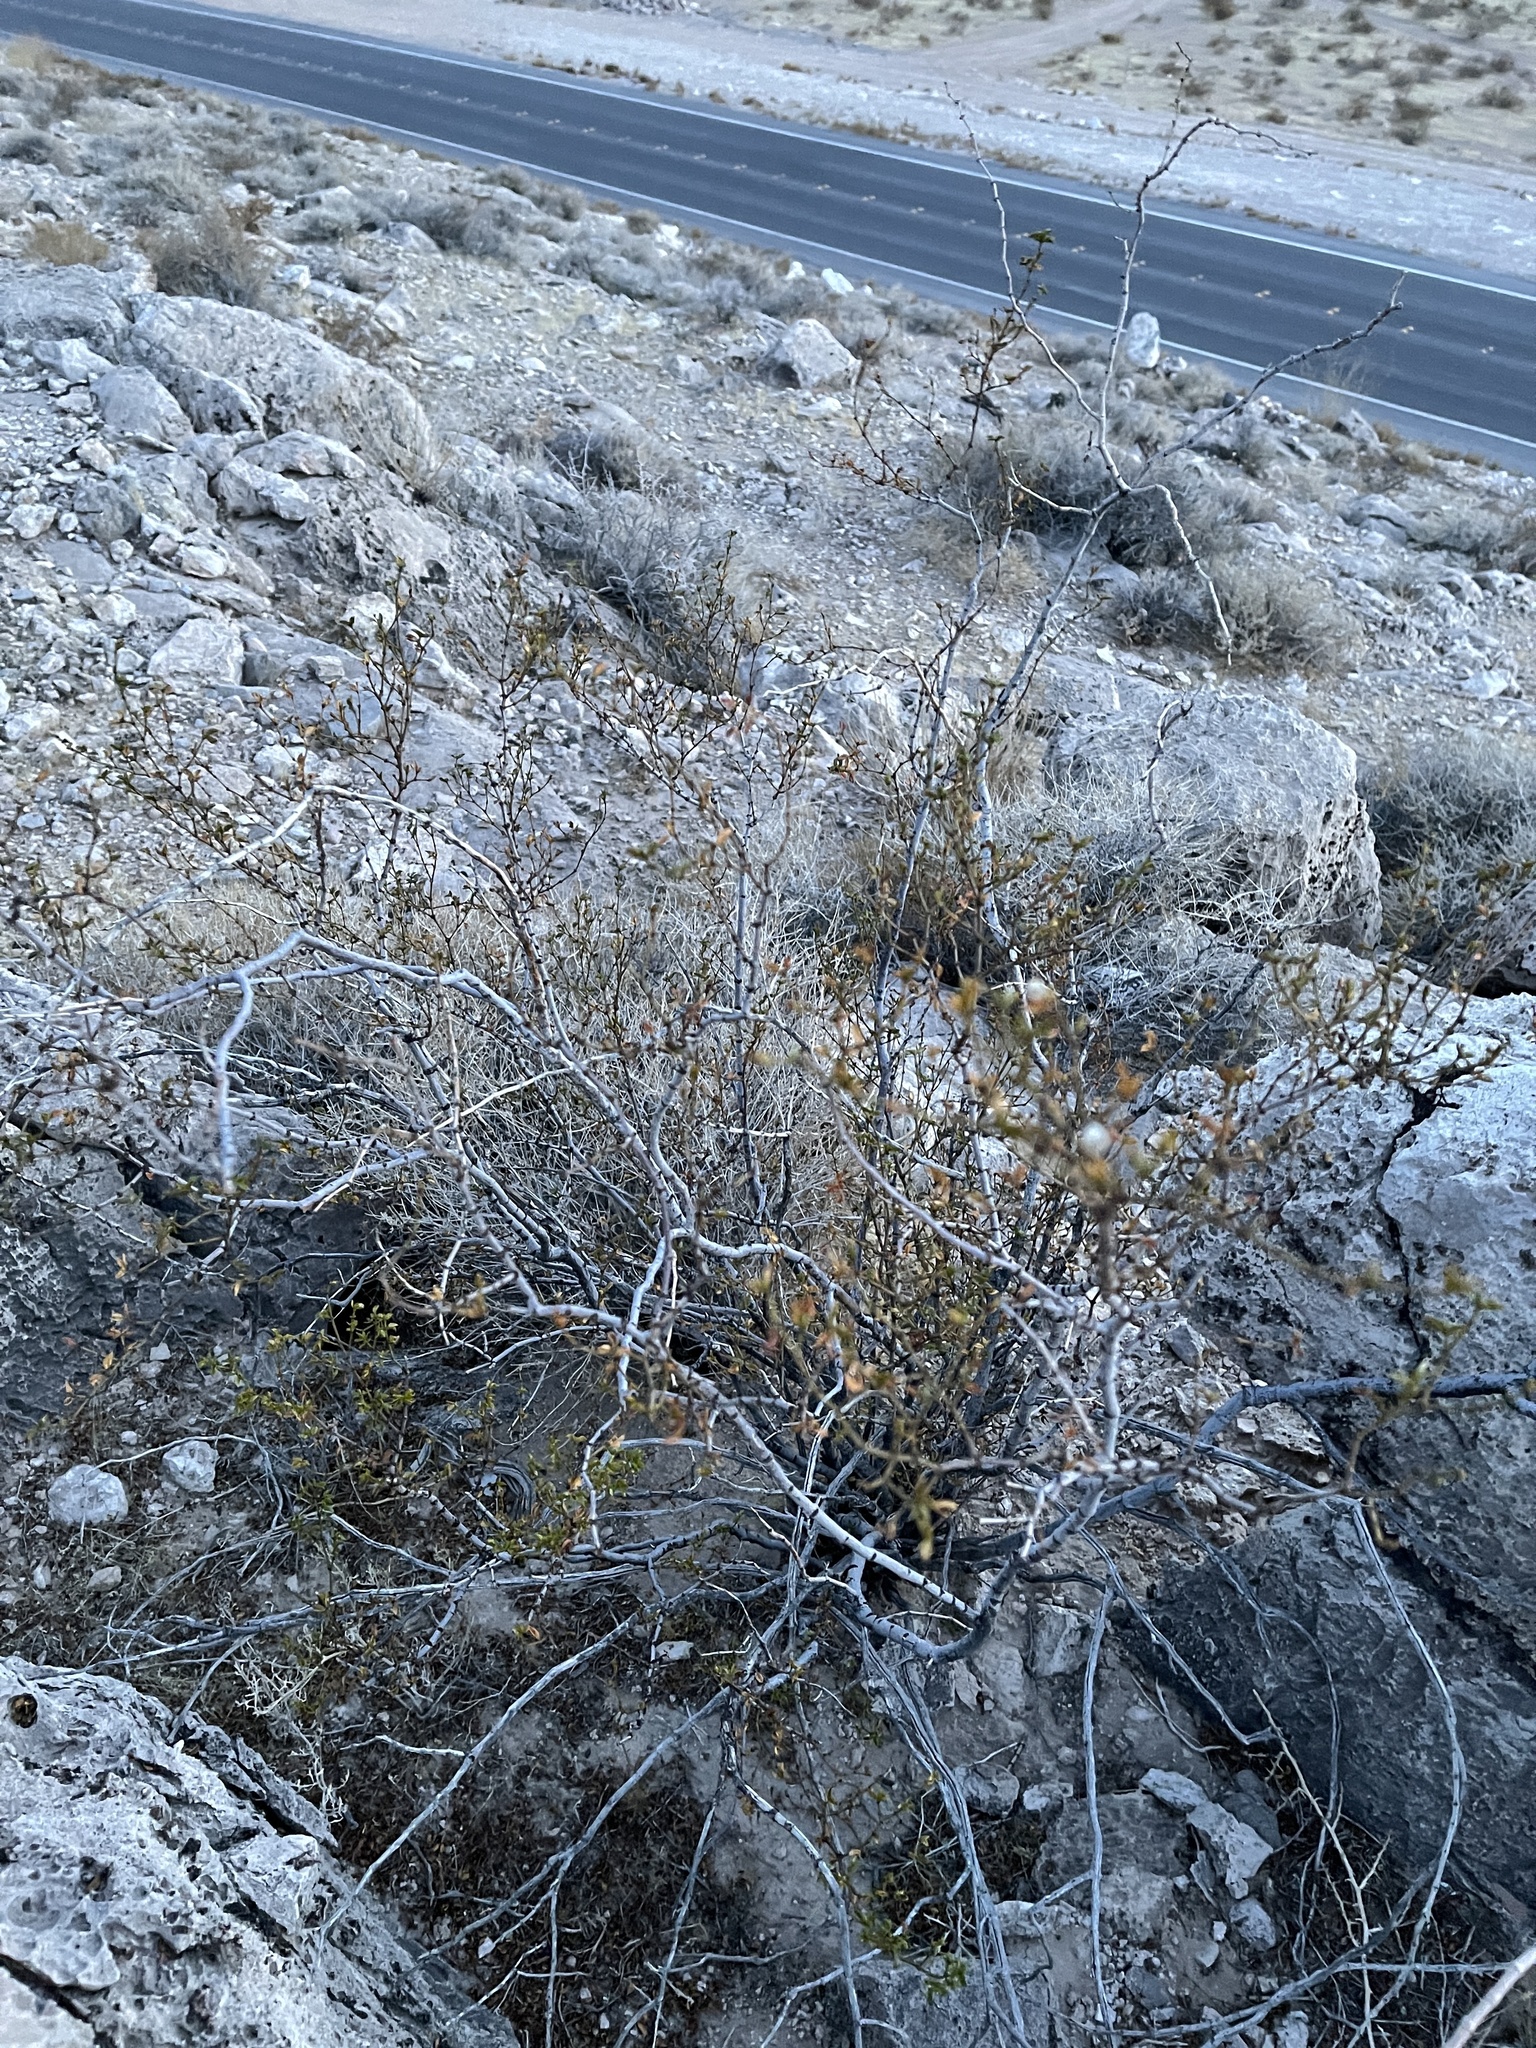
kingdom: Plantae
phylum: Tracheophyta
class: Magnoliopsida
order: Zygophyllales
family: Zygophyllaceae
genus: Larrea
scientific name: Larrea tridentata
